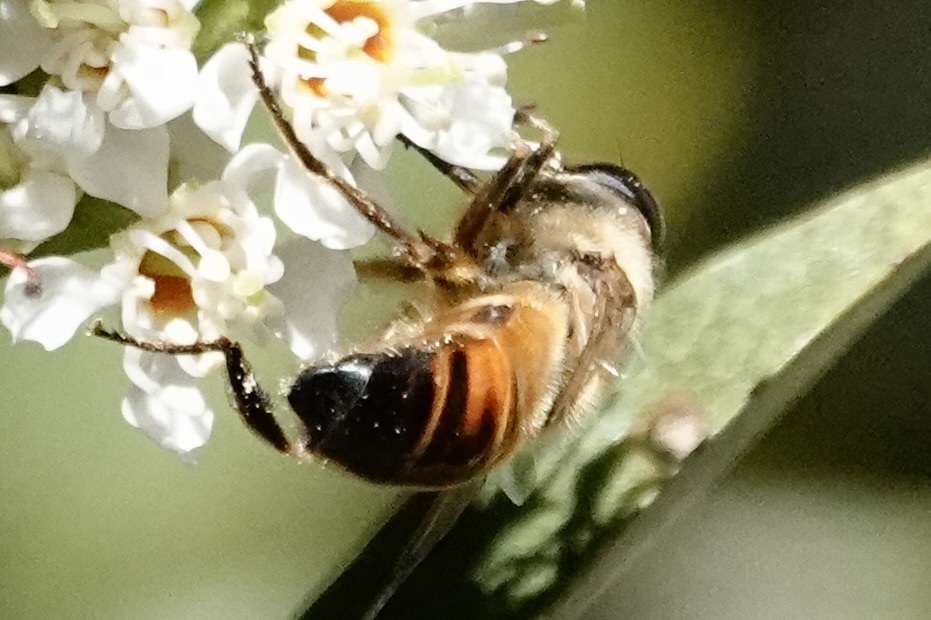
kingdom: Animalia
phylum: Arthropoda
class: Insecta
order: Diptera
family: Syrphidae
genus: Eristalis
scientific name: Eristalis tenax
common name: Drone fly
